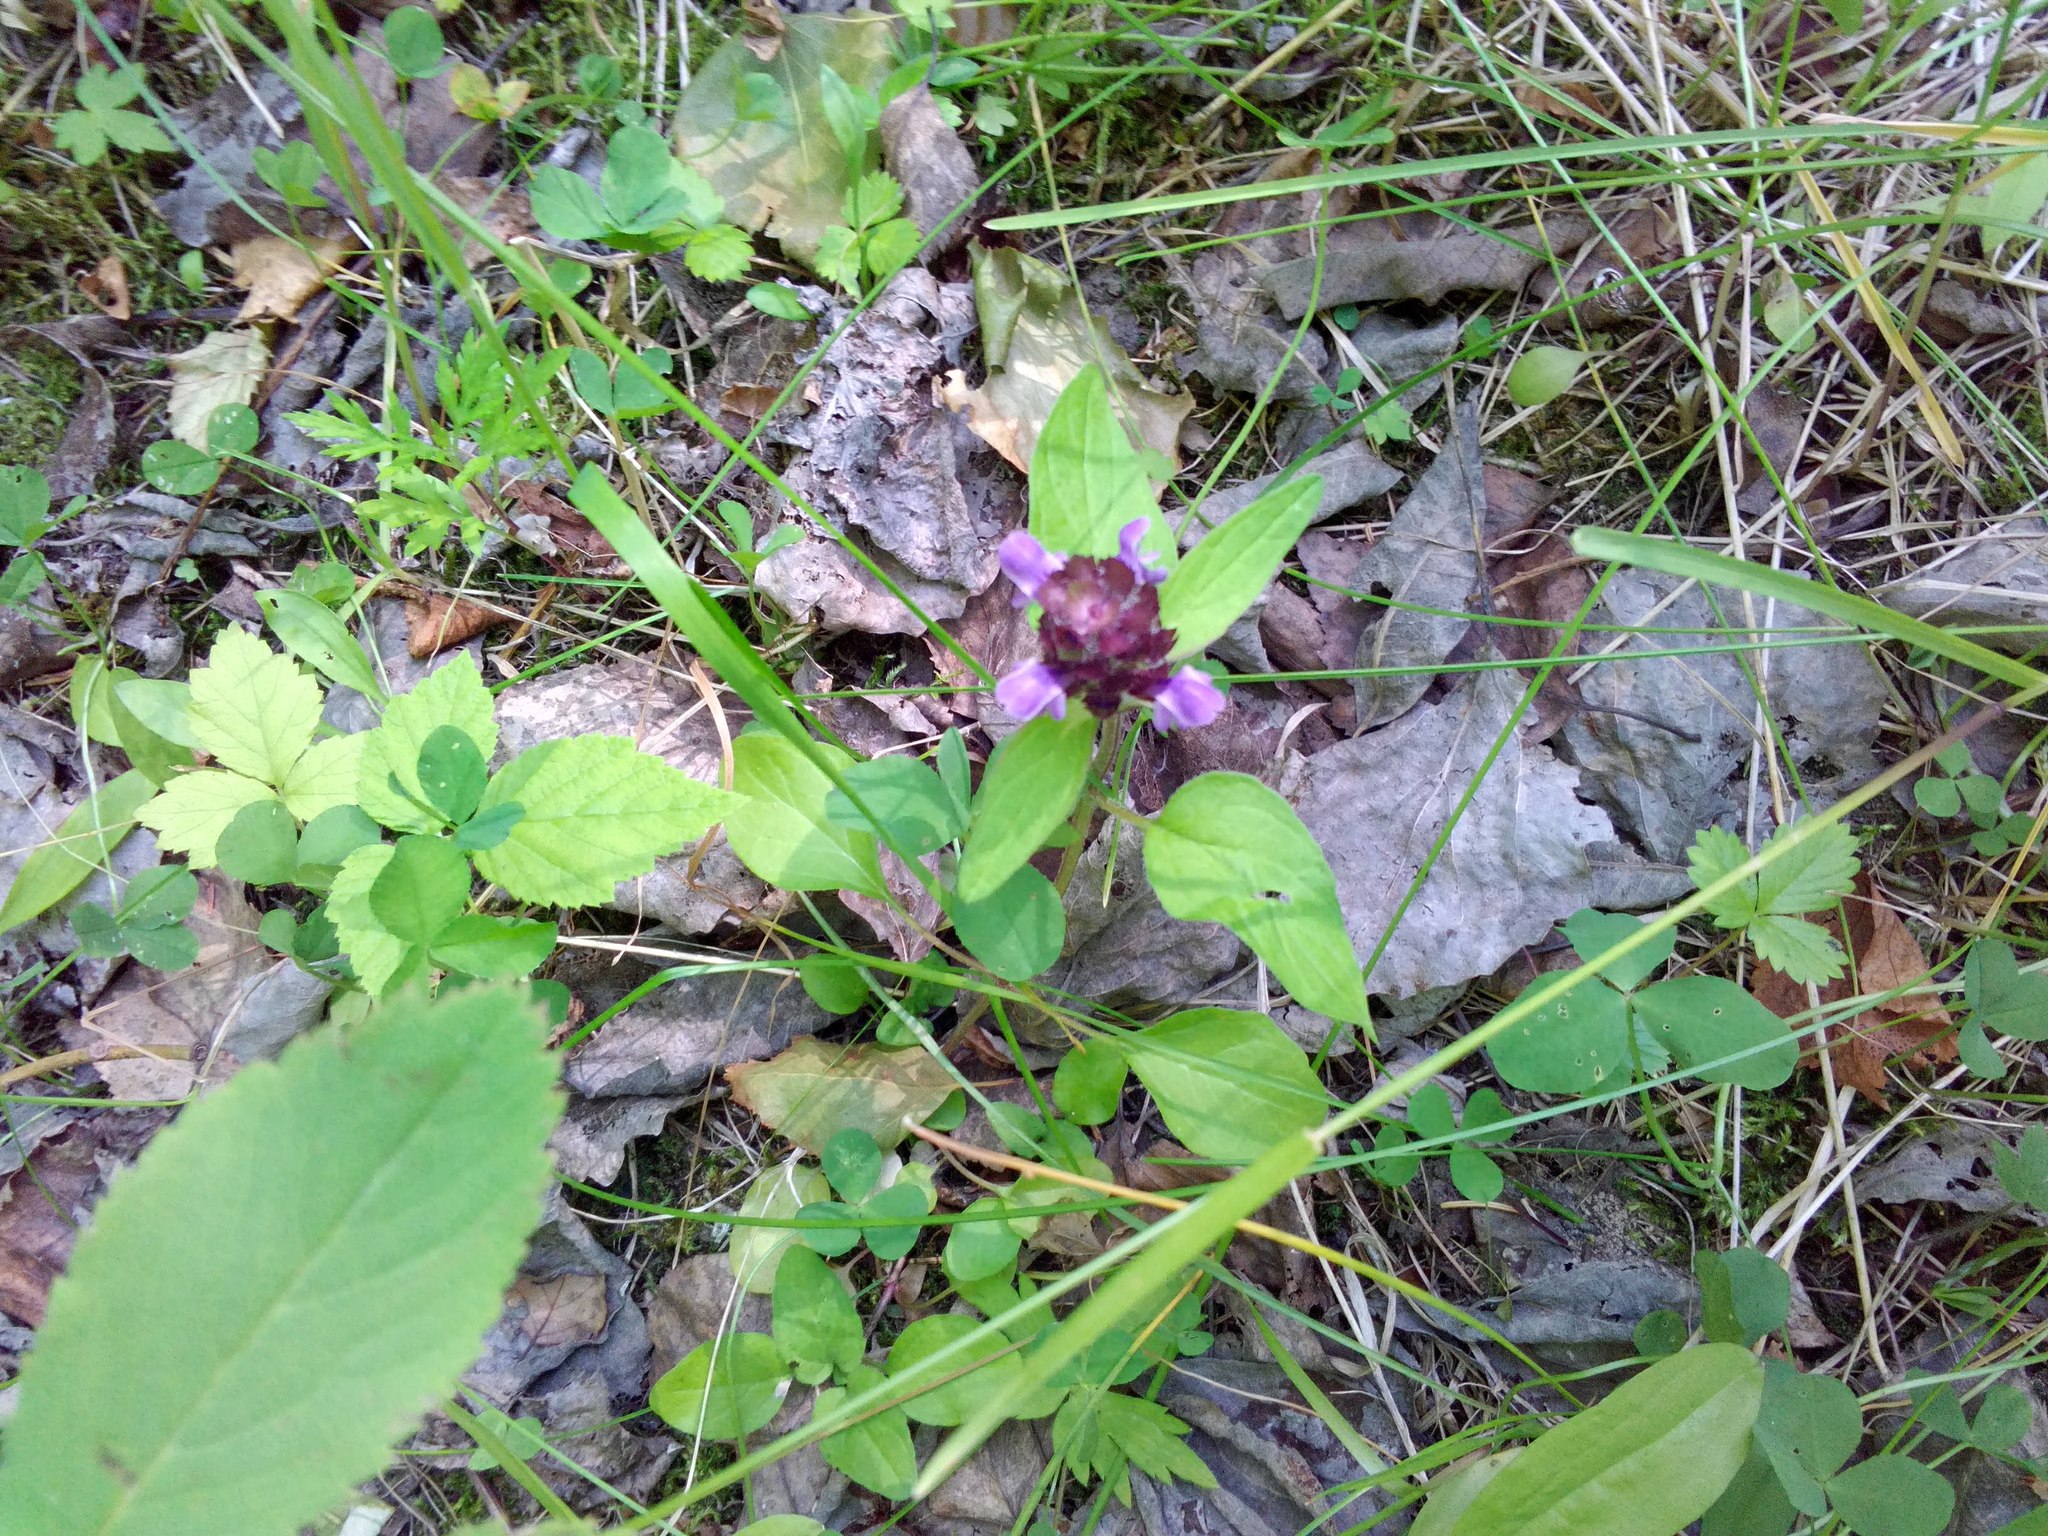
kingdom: Plantae
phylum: Tracheophyta
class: Magnoliopsida
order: Lamiales
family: Lamiaceae
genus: Prunella
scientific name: Prunella vulgaris
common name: Heal-all
